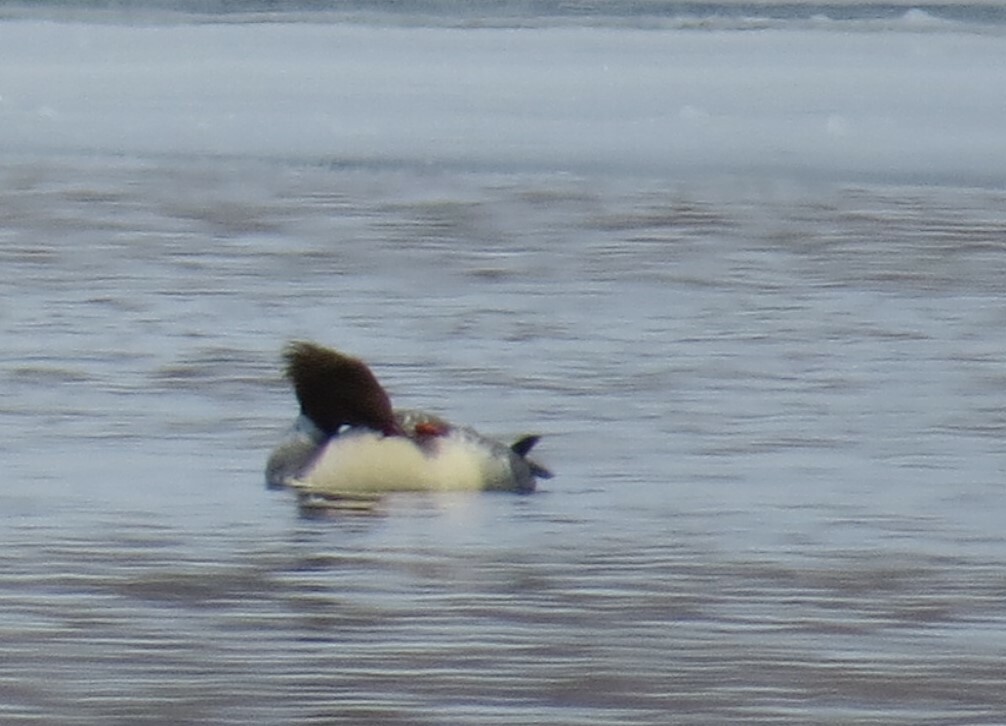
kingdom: Animalia
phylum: Chordata
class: Aves
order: Anseriformes
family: Anatidae
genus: Mergus
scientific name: Mergus merganser
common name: Common merganser
